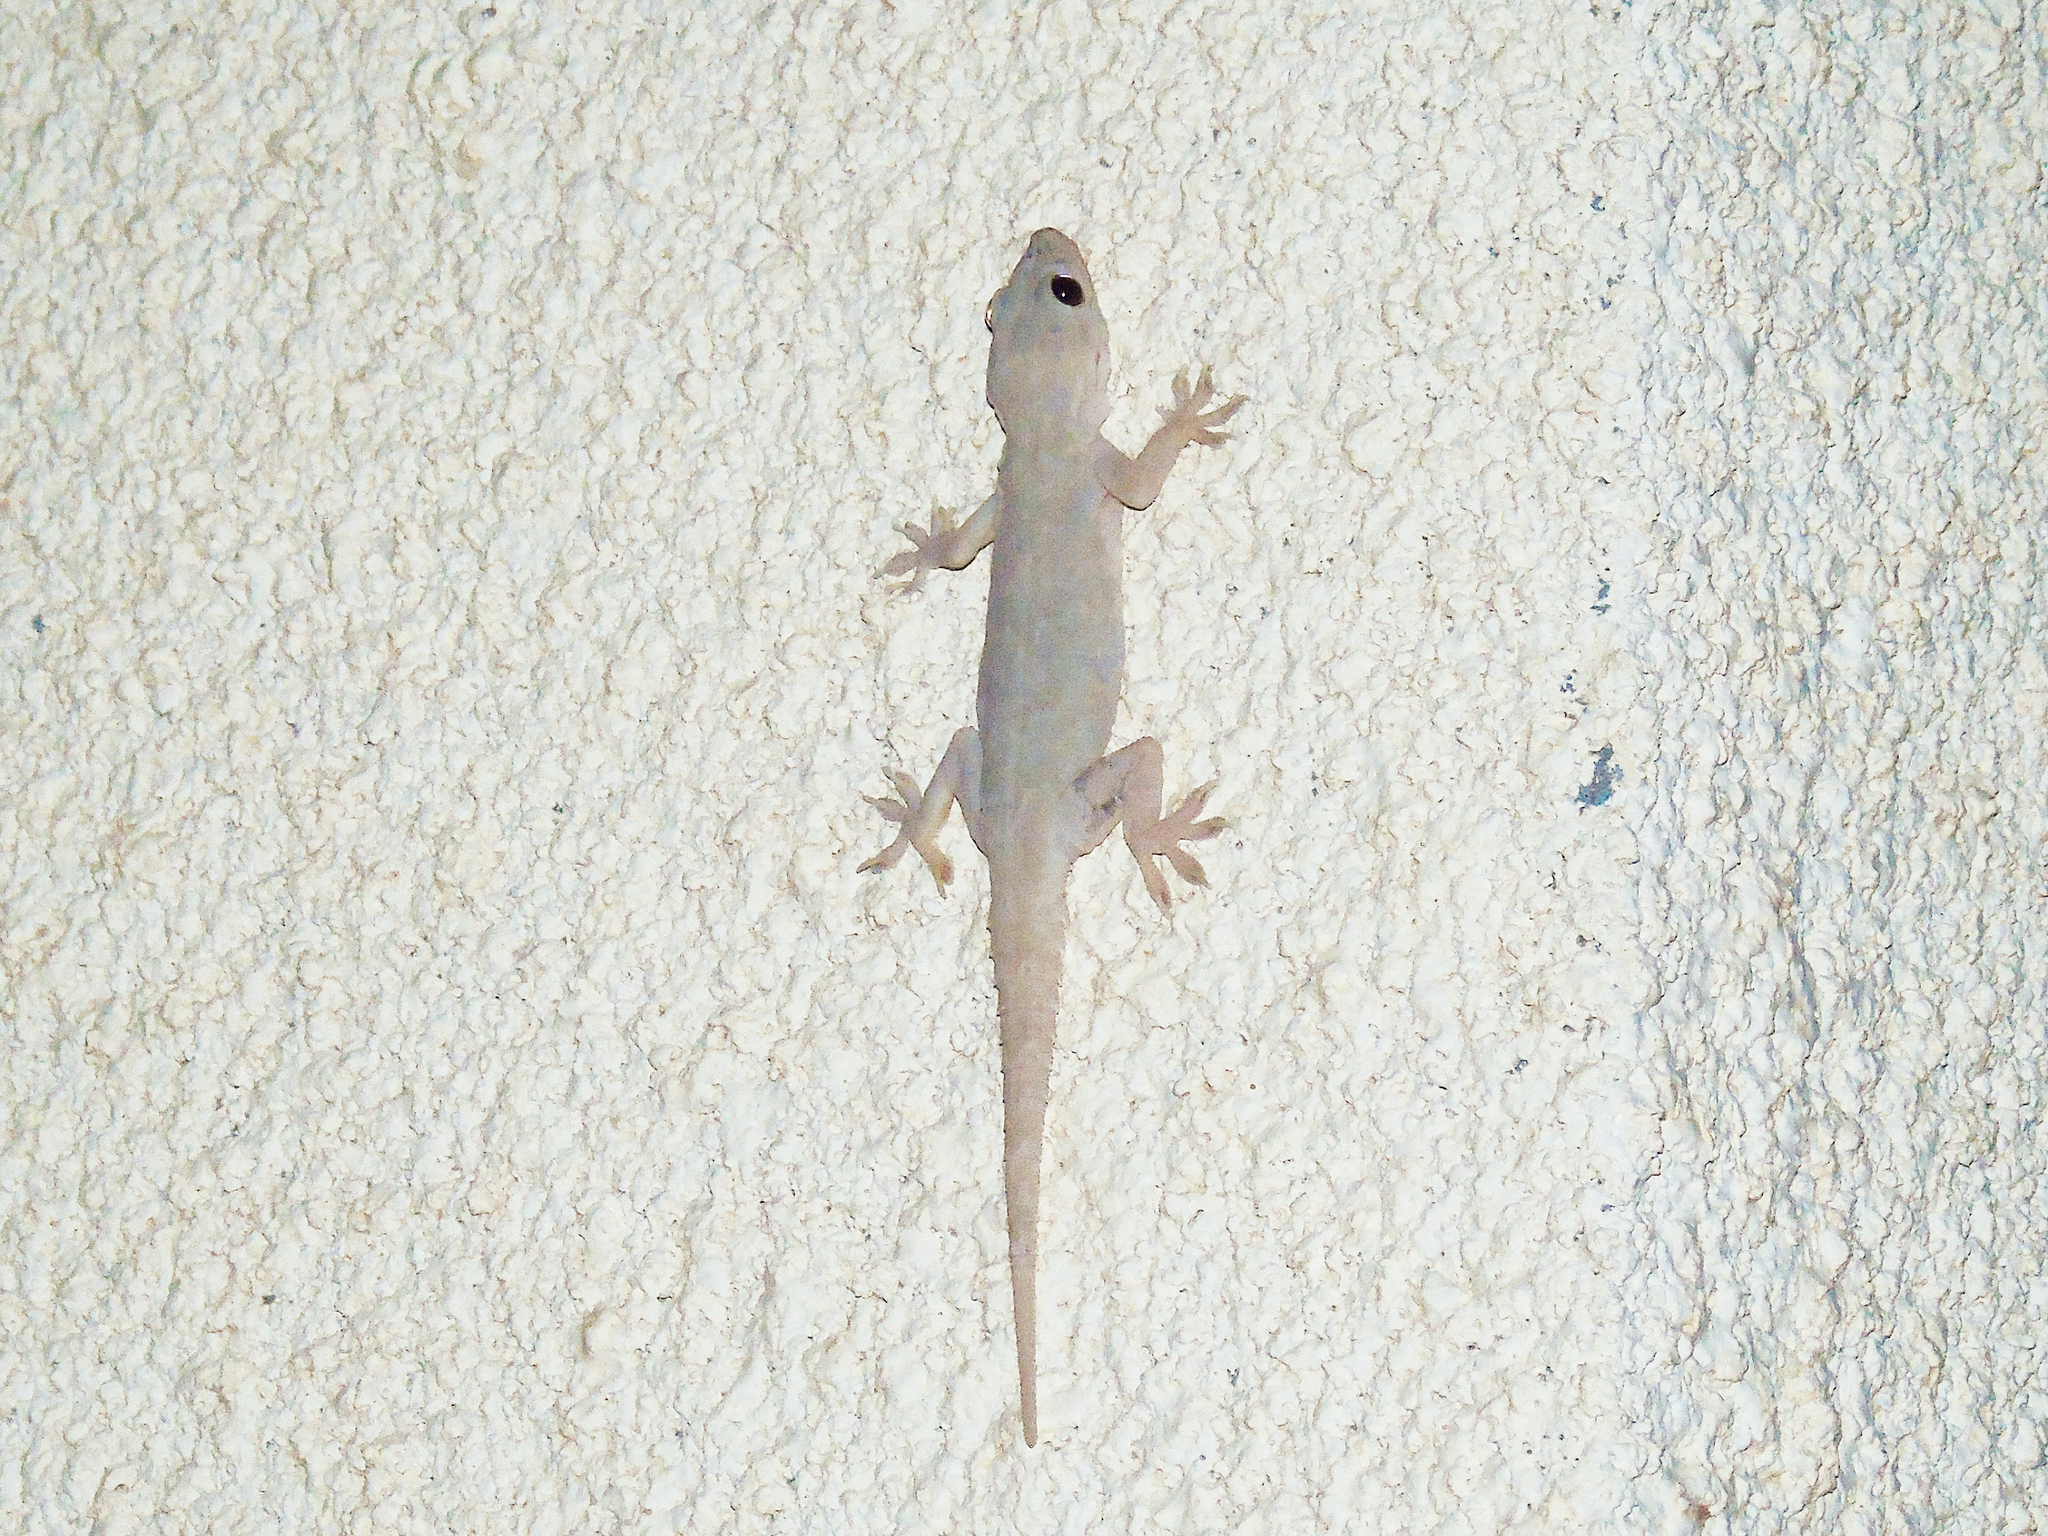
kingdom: Animalia
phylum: Chordata
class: Squamata
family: Gekkonidae
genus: Hemidactylus
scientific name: Hemidactylus flaviviridis
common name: Northern house gecko
